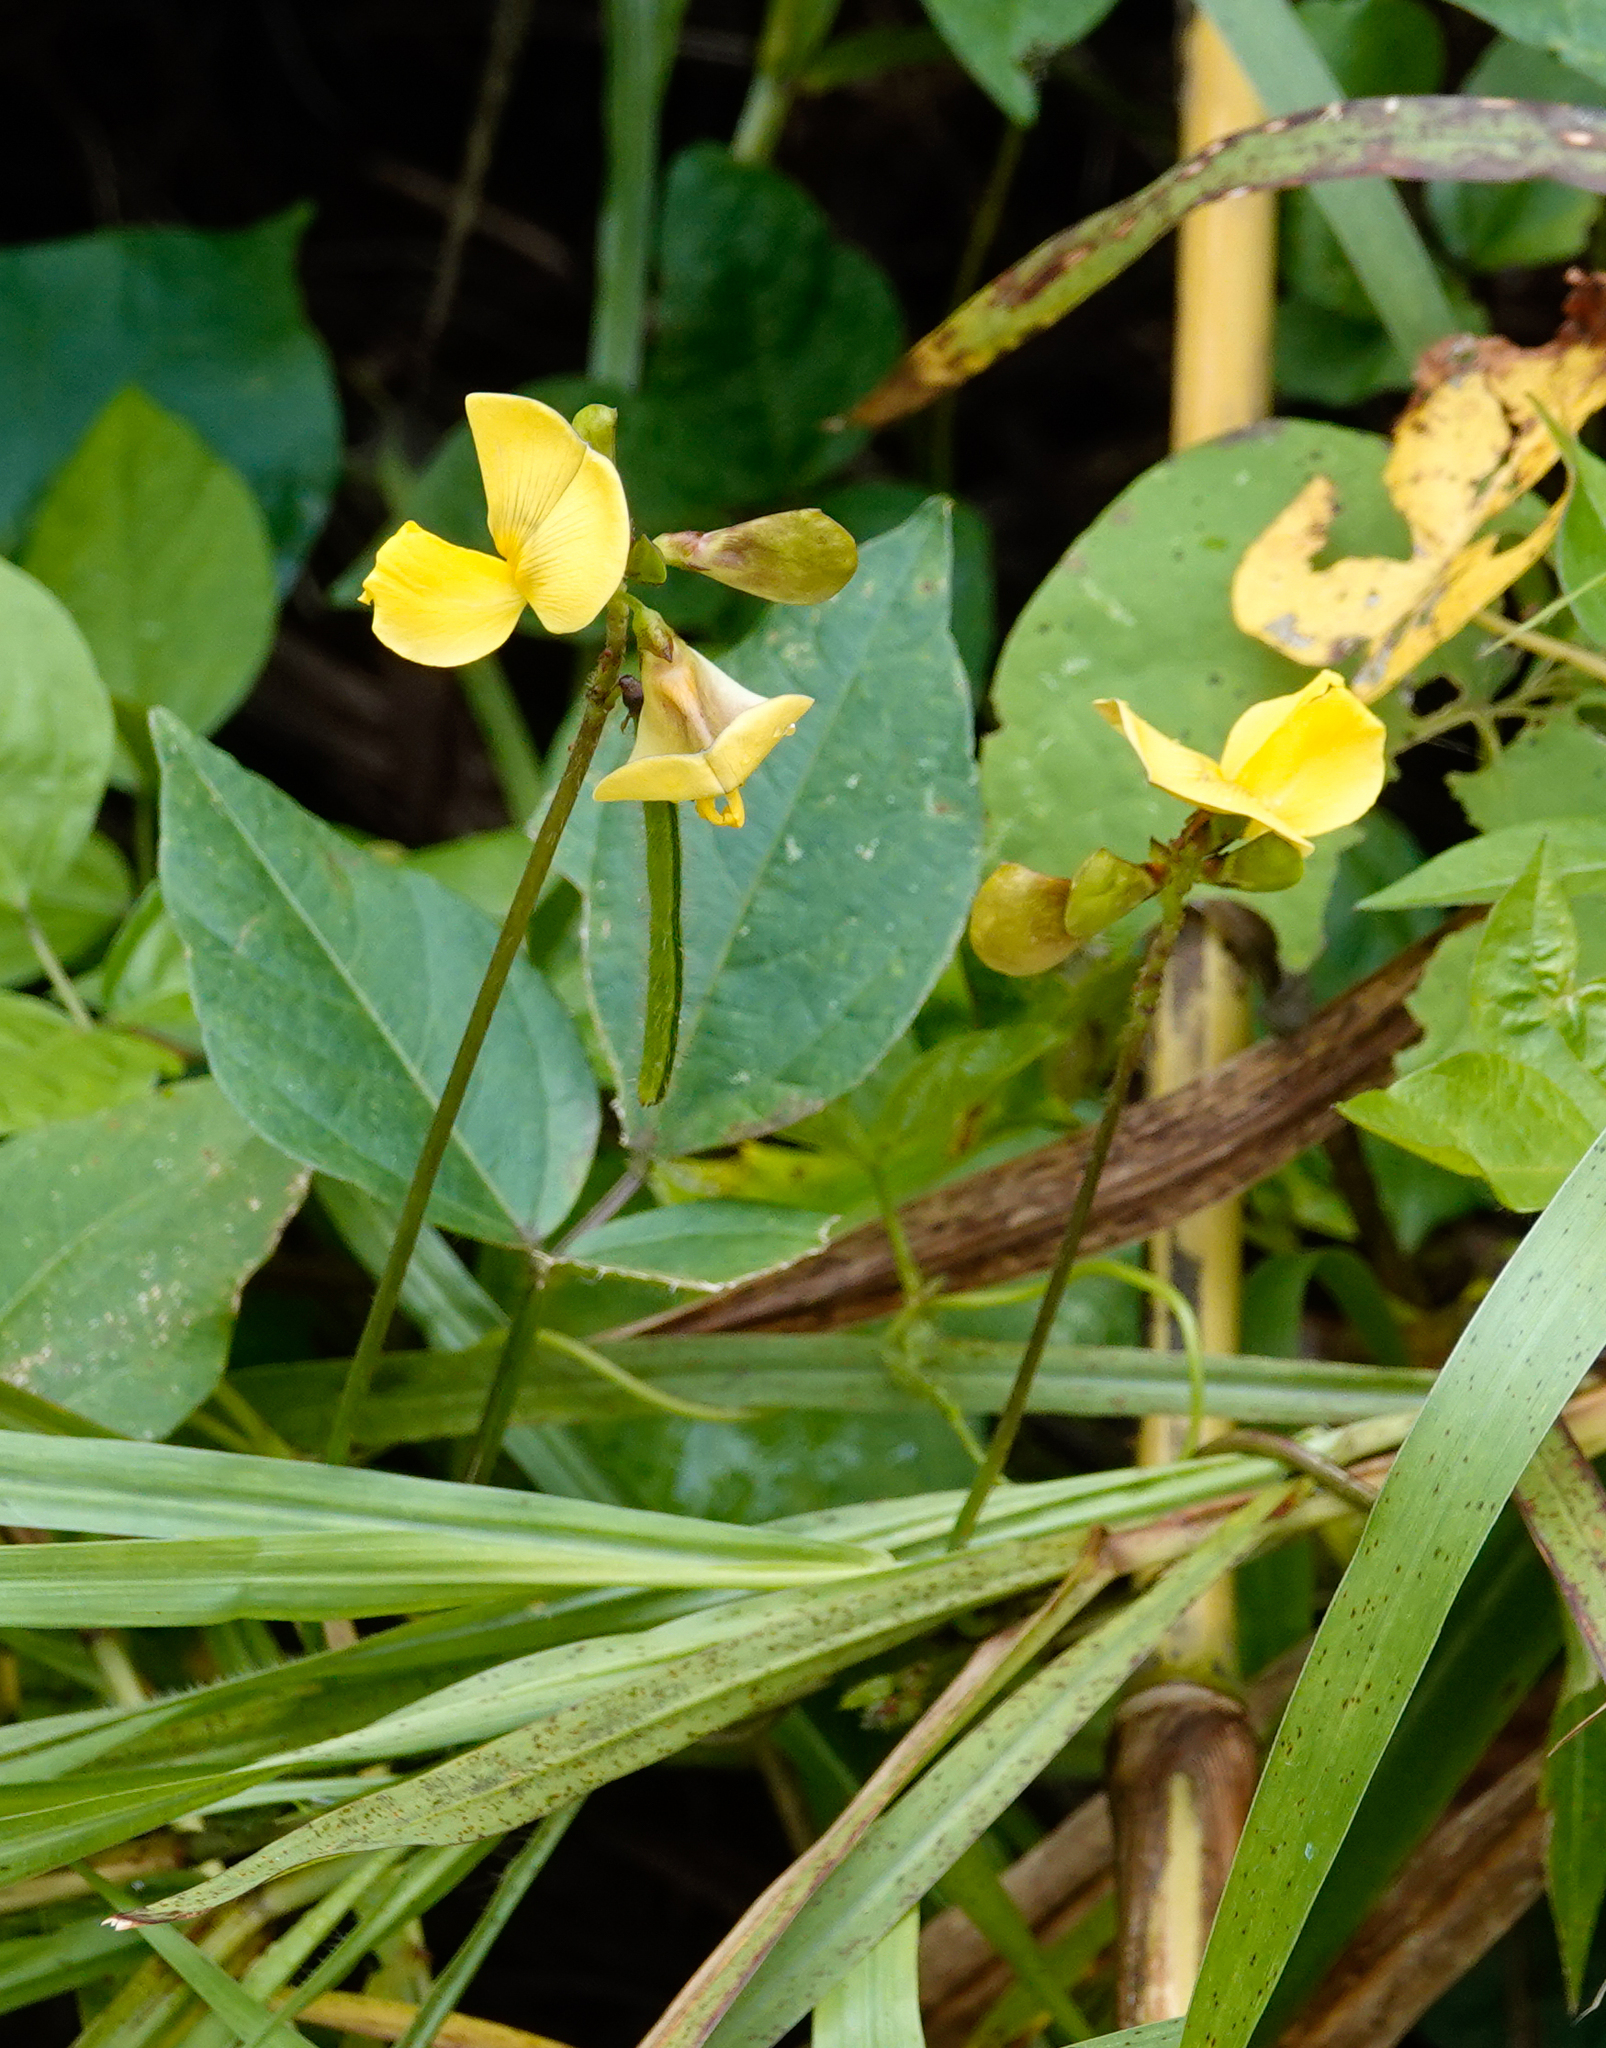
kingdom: Plantae
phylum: Tracheophyta
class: Magnoliopsida
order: Fabales
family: Fabaceae
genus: Vigna
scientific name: Vigna luteola
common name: Hairypod cowpea
